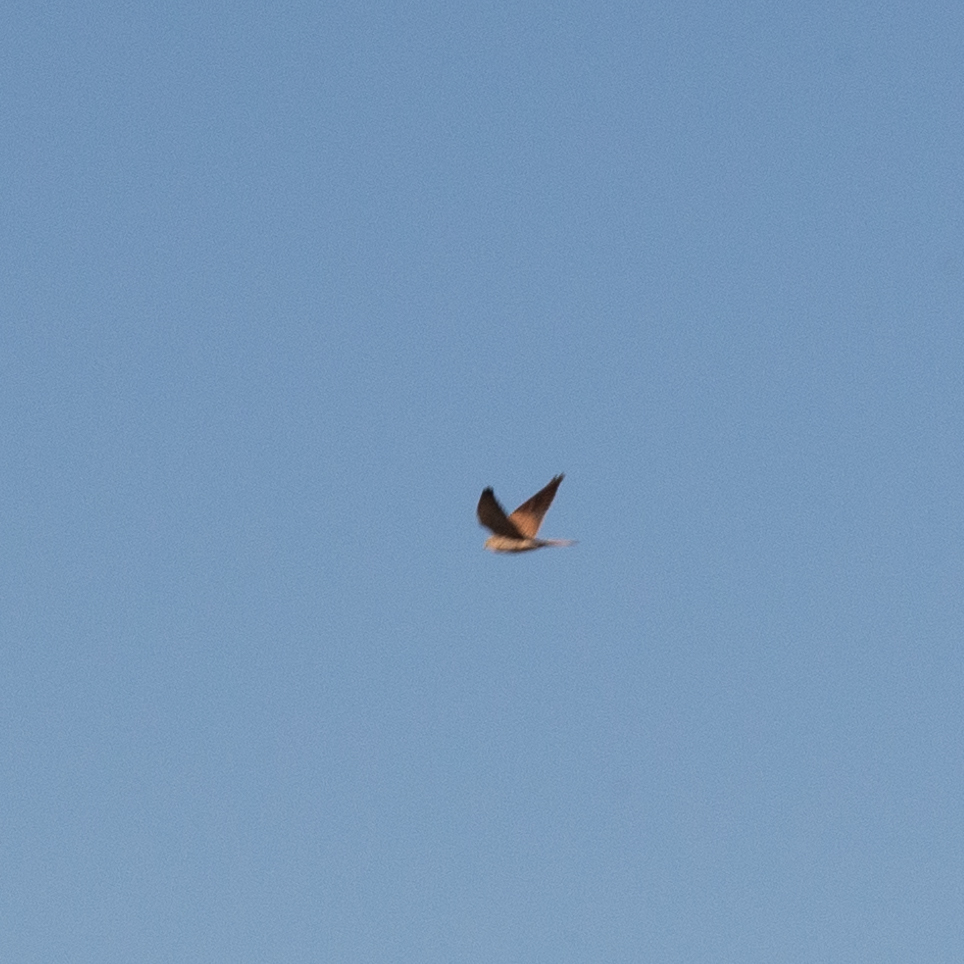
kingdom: Animalia
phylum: Chordata
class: Aves
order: Falconiformes
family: Falconidae
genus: Falco
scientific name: Falco tinnunculus
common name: Common kestrel
